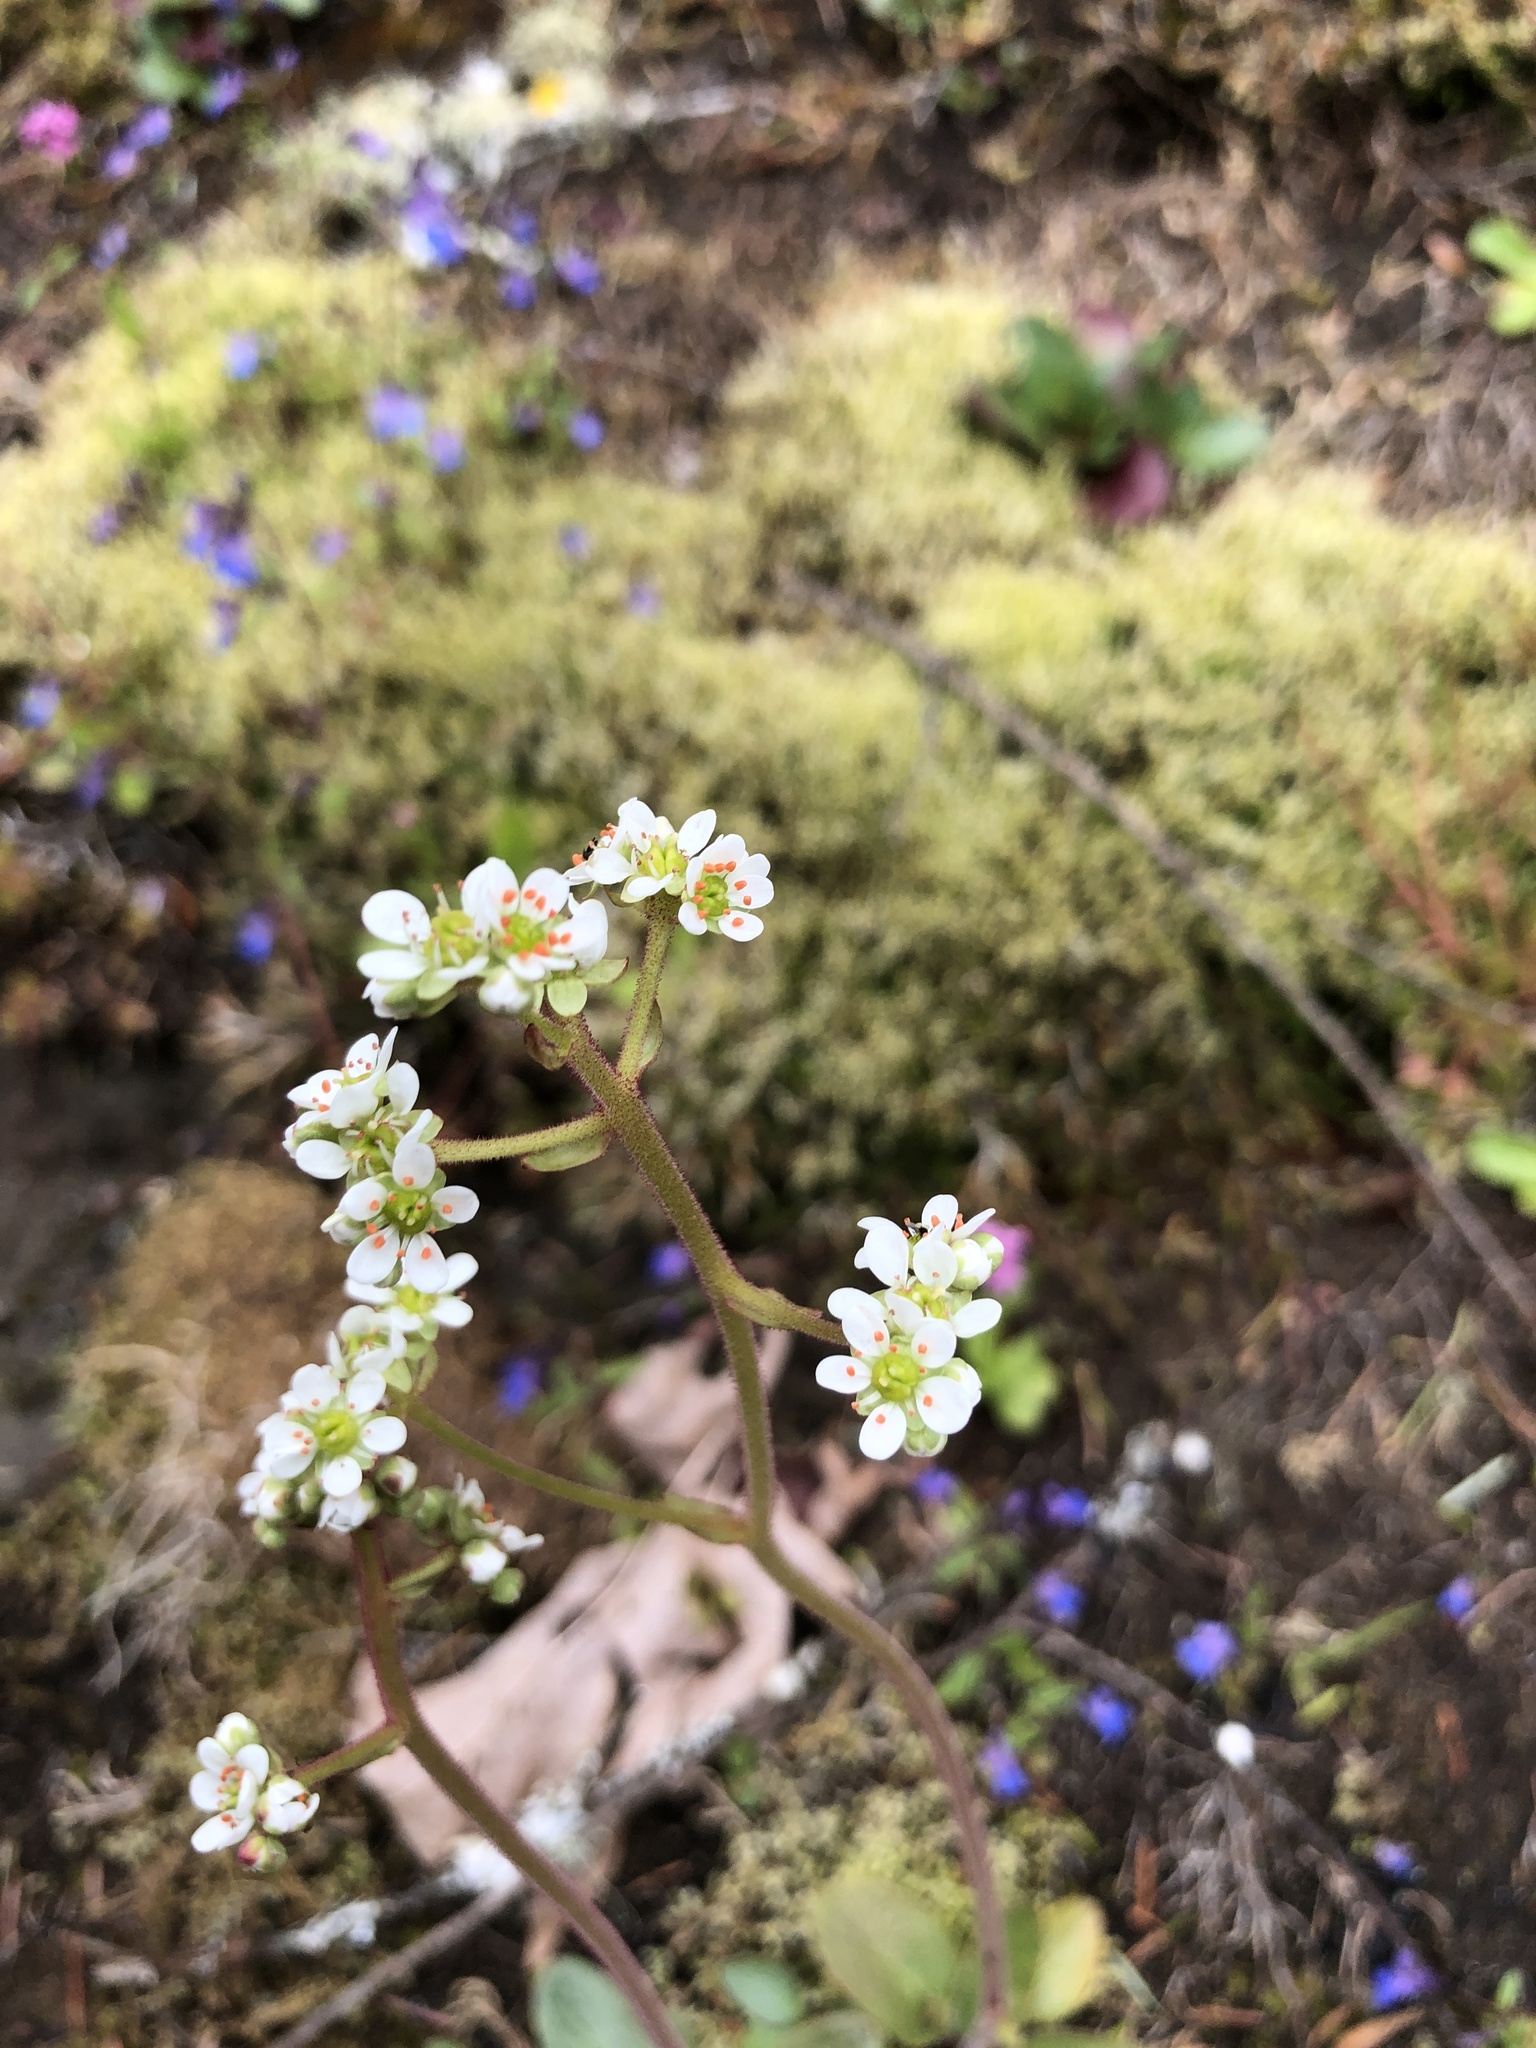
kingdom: Plantae
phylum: Tracheophyta
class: Magnoliopsida
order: Saxifragales
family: Saxifragaceae
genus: Micranthes
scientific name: Micranthes integrifolia
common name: Wholeleaf saxifrage
